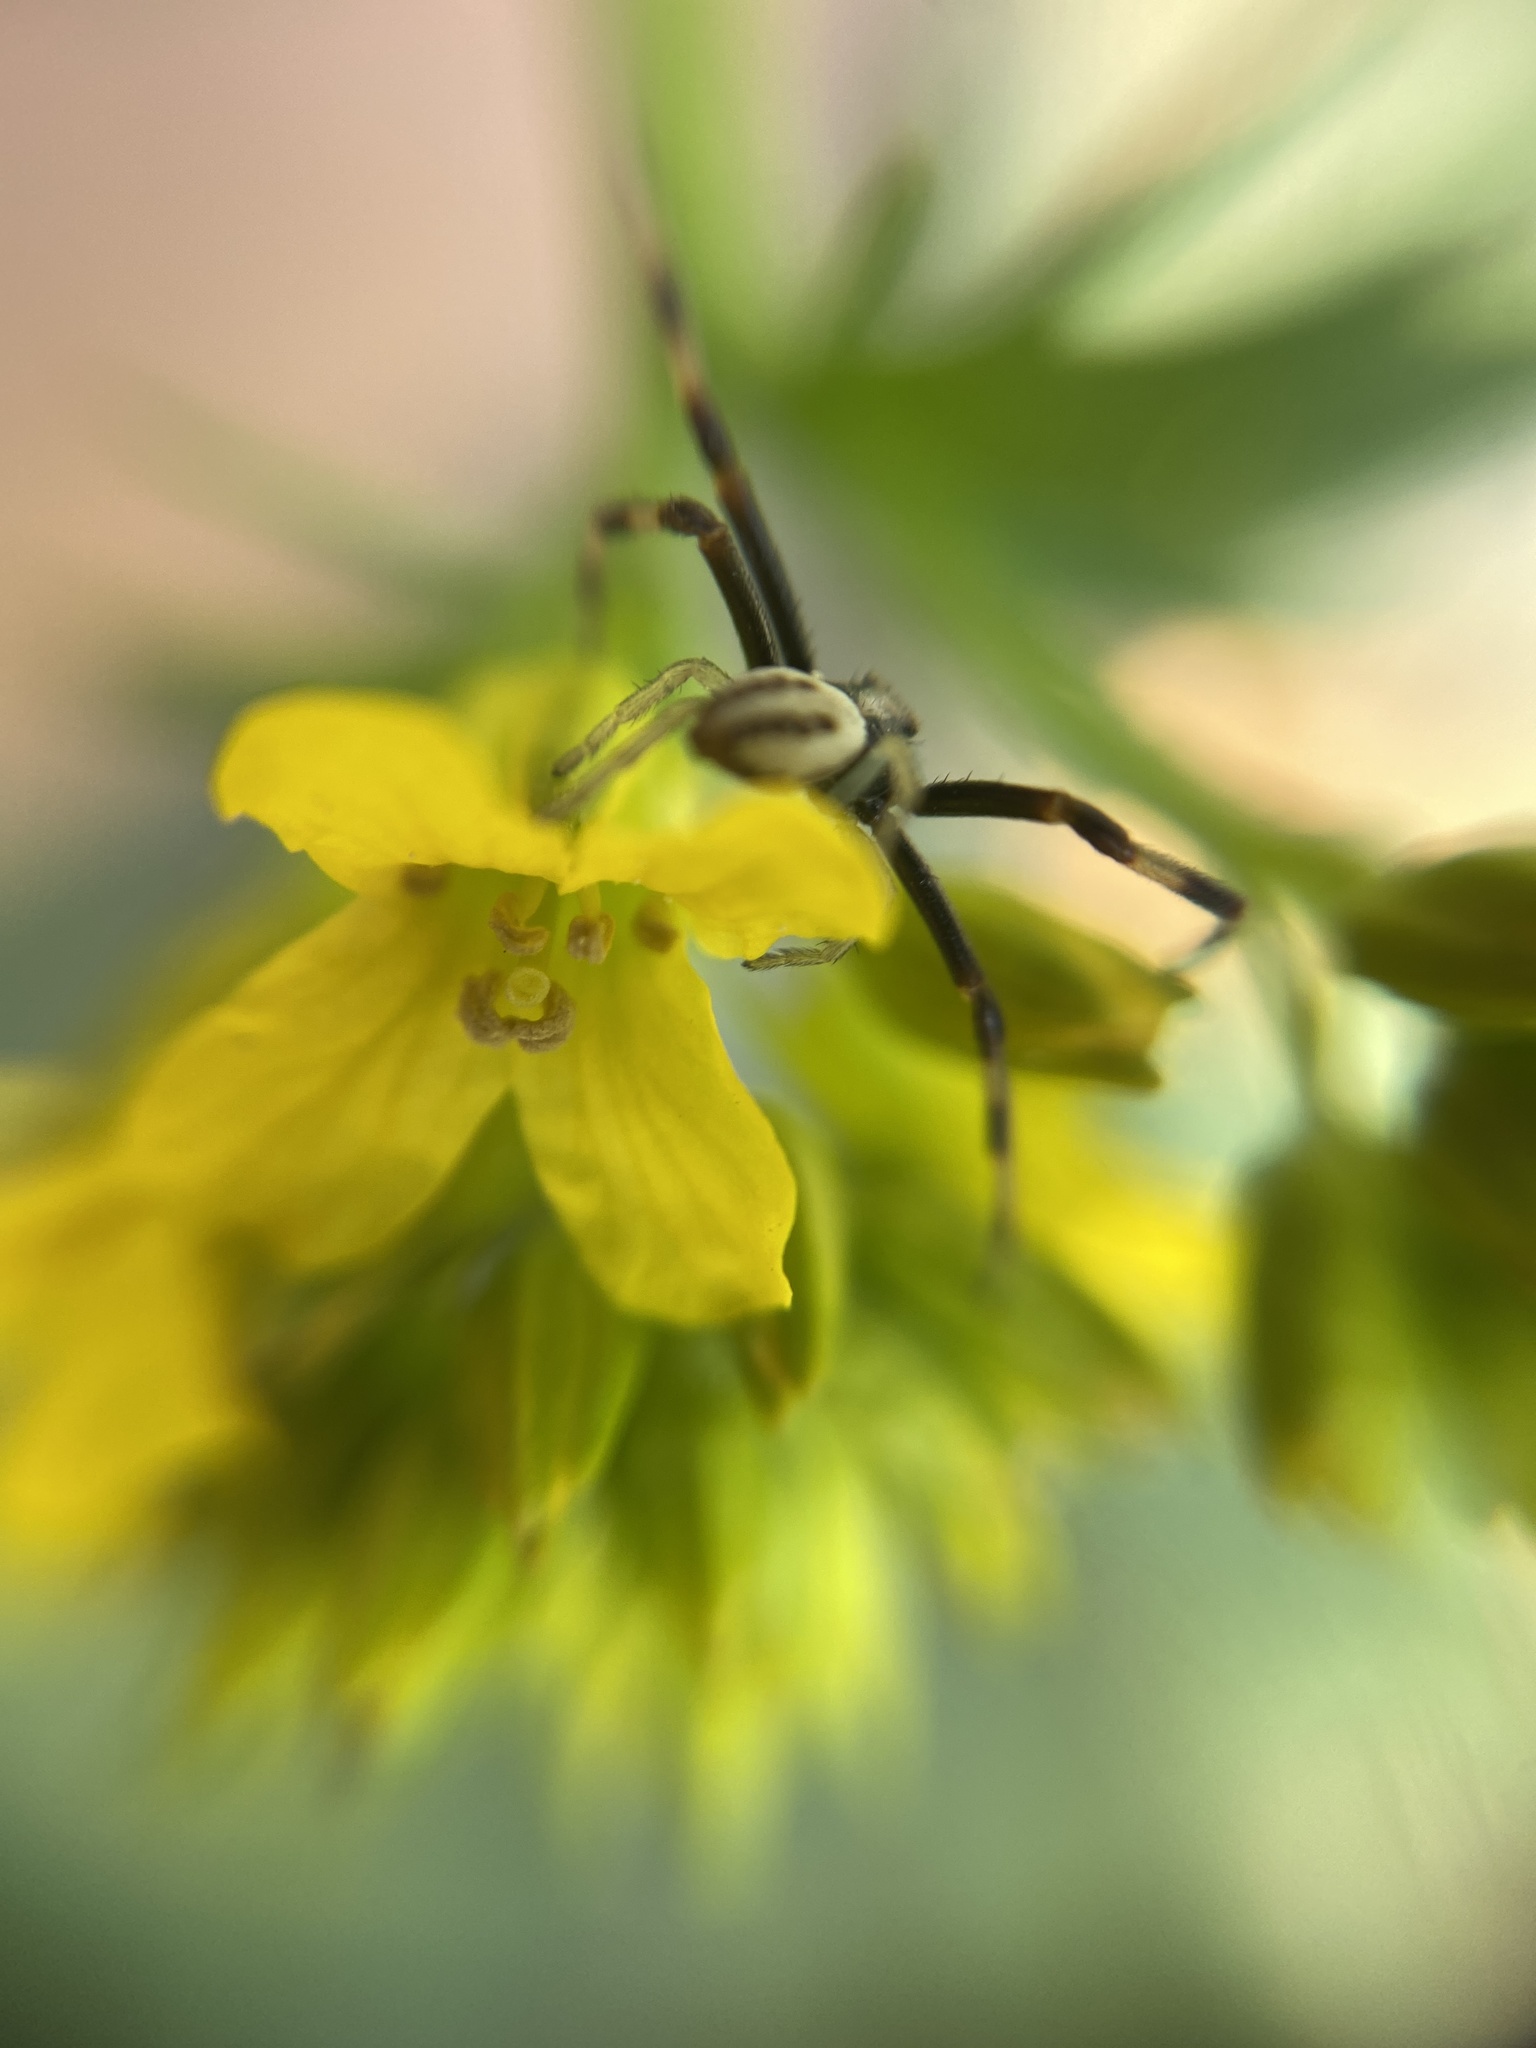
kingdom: Animalia
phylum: Arthropoda
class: Arachnida
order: Araneae
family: Thomisidae
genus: Misumena
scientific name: Misumena vatia
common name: Goldenrod crab spider
